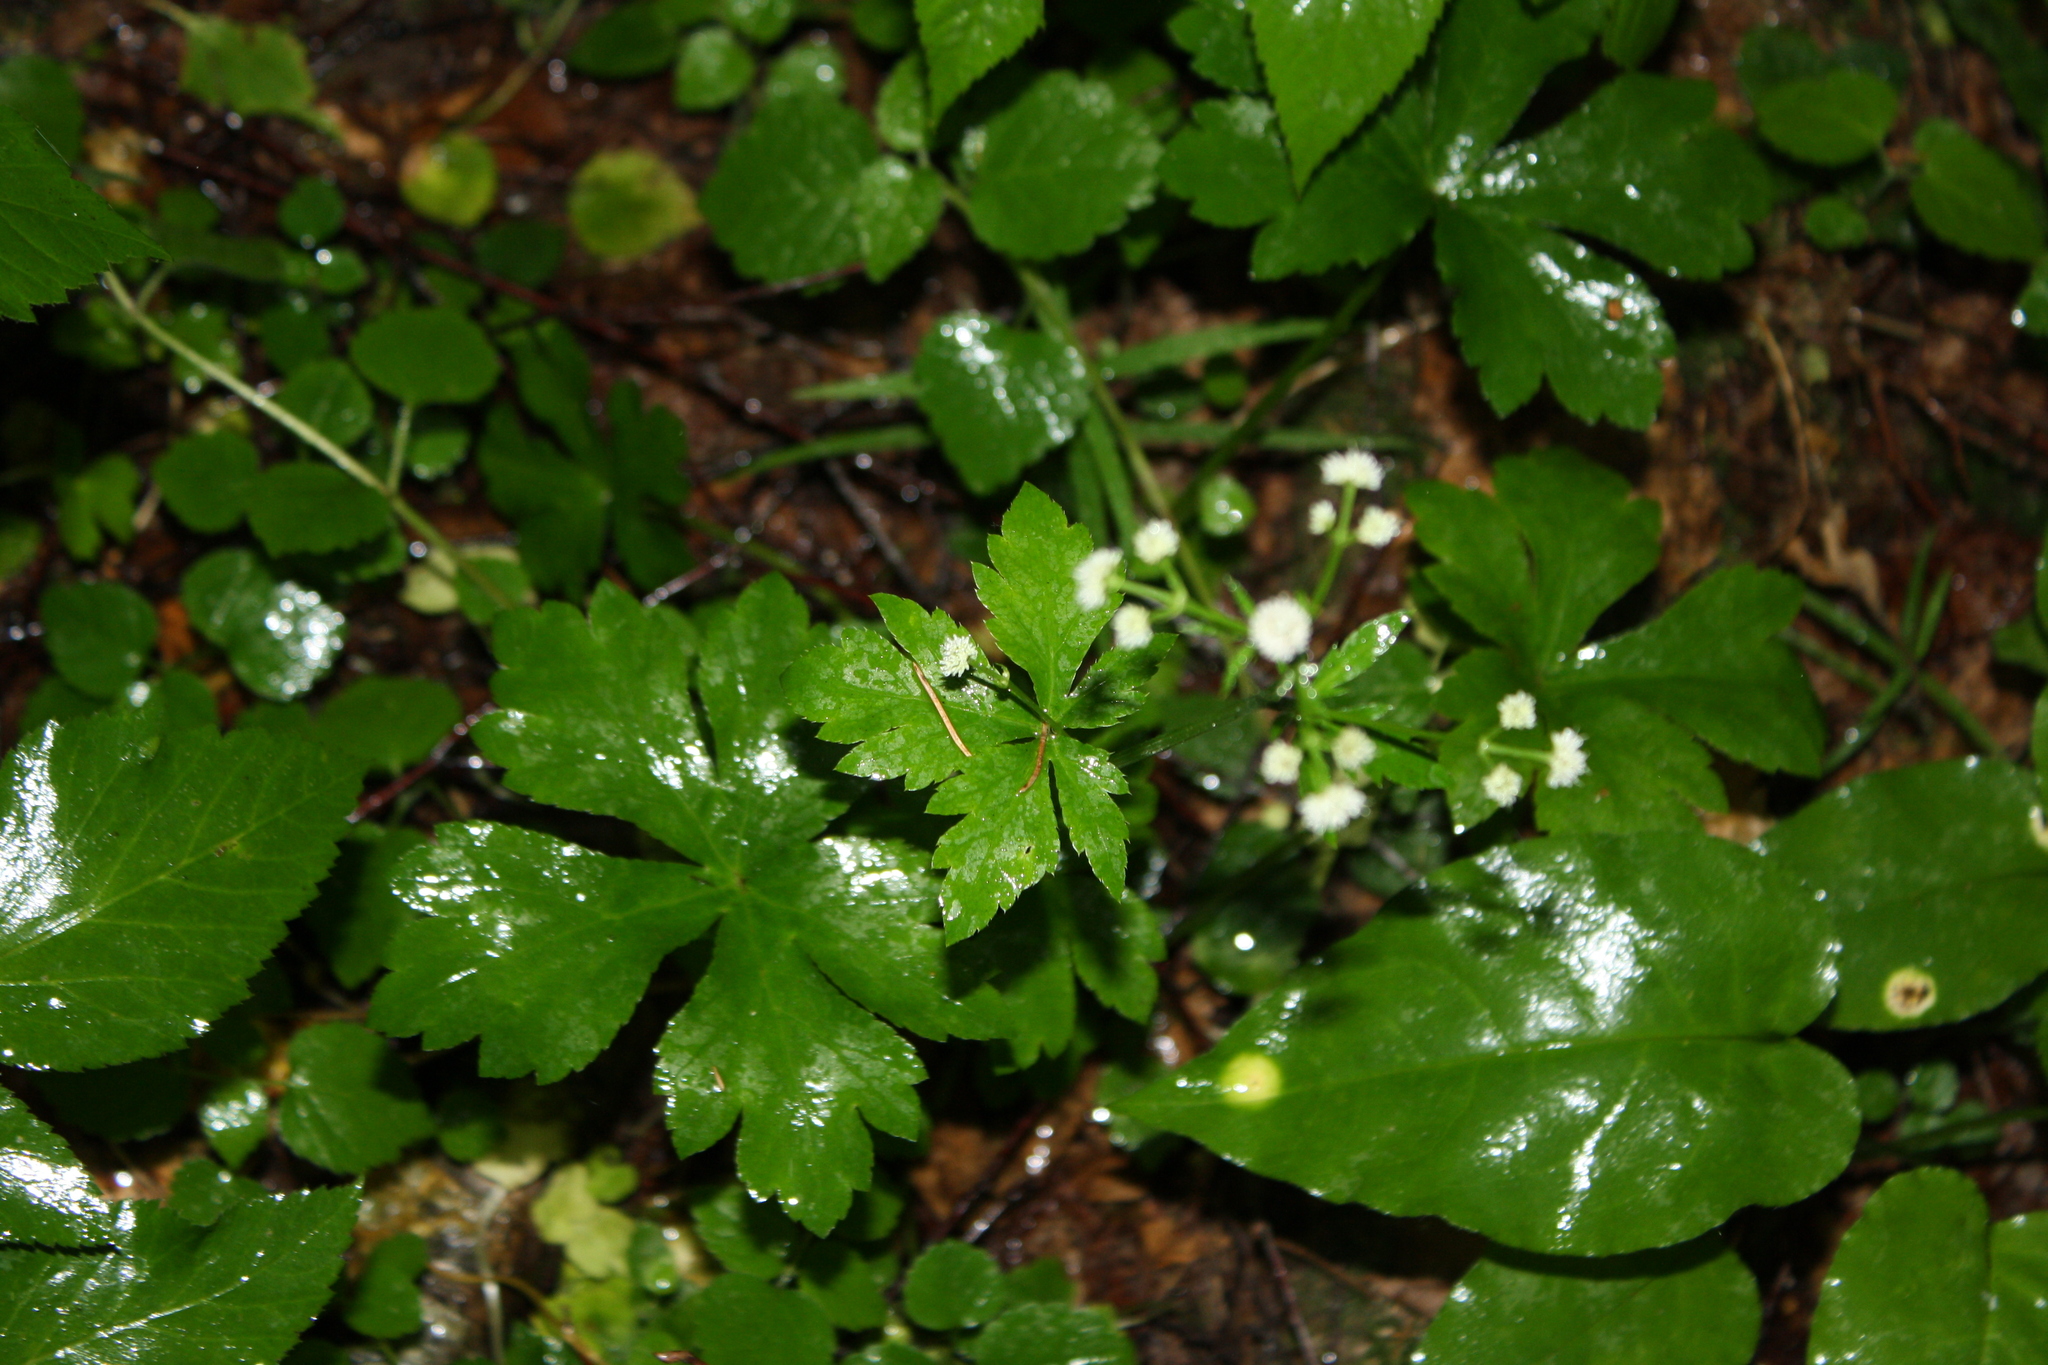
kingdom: Plantae
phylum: Tracheophyta
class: Magnoliopsida
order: Apiales
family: Apiaceae
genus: Sanicula
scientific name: Sanicula europaea
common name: Sanicle
